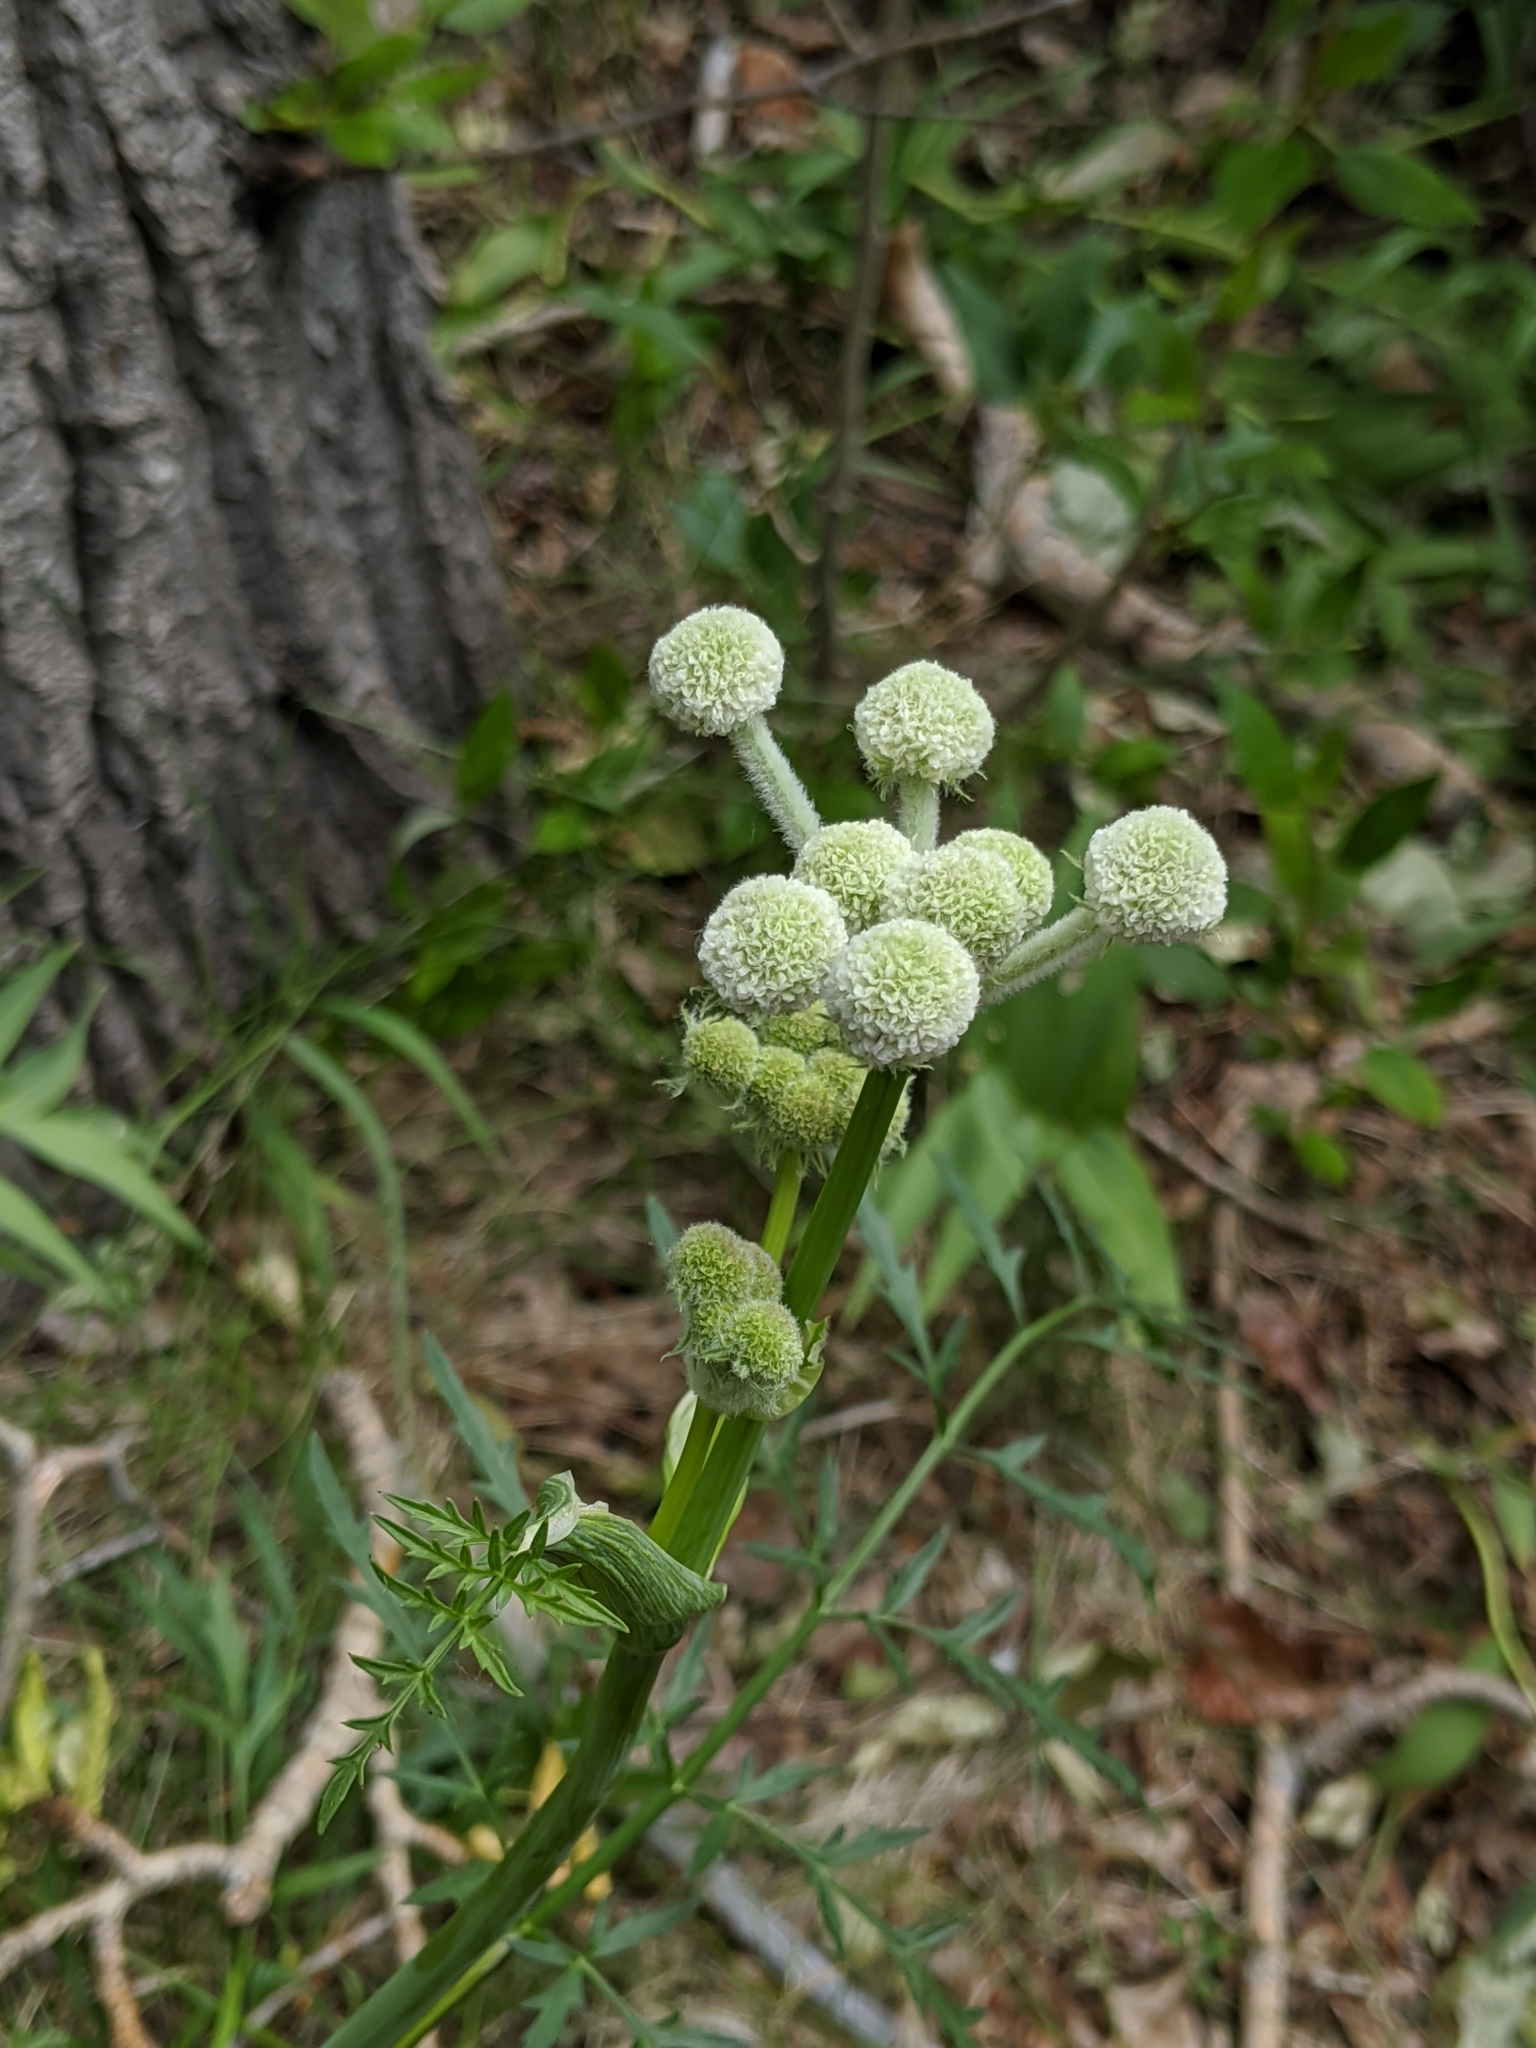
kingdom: Plantae
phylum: Tracheophyta
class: Magnoliopsida
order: Apiales
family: Apiaceae
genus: Angelica
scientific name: Angelica capitellata
